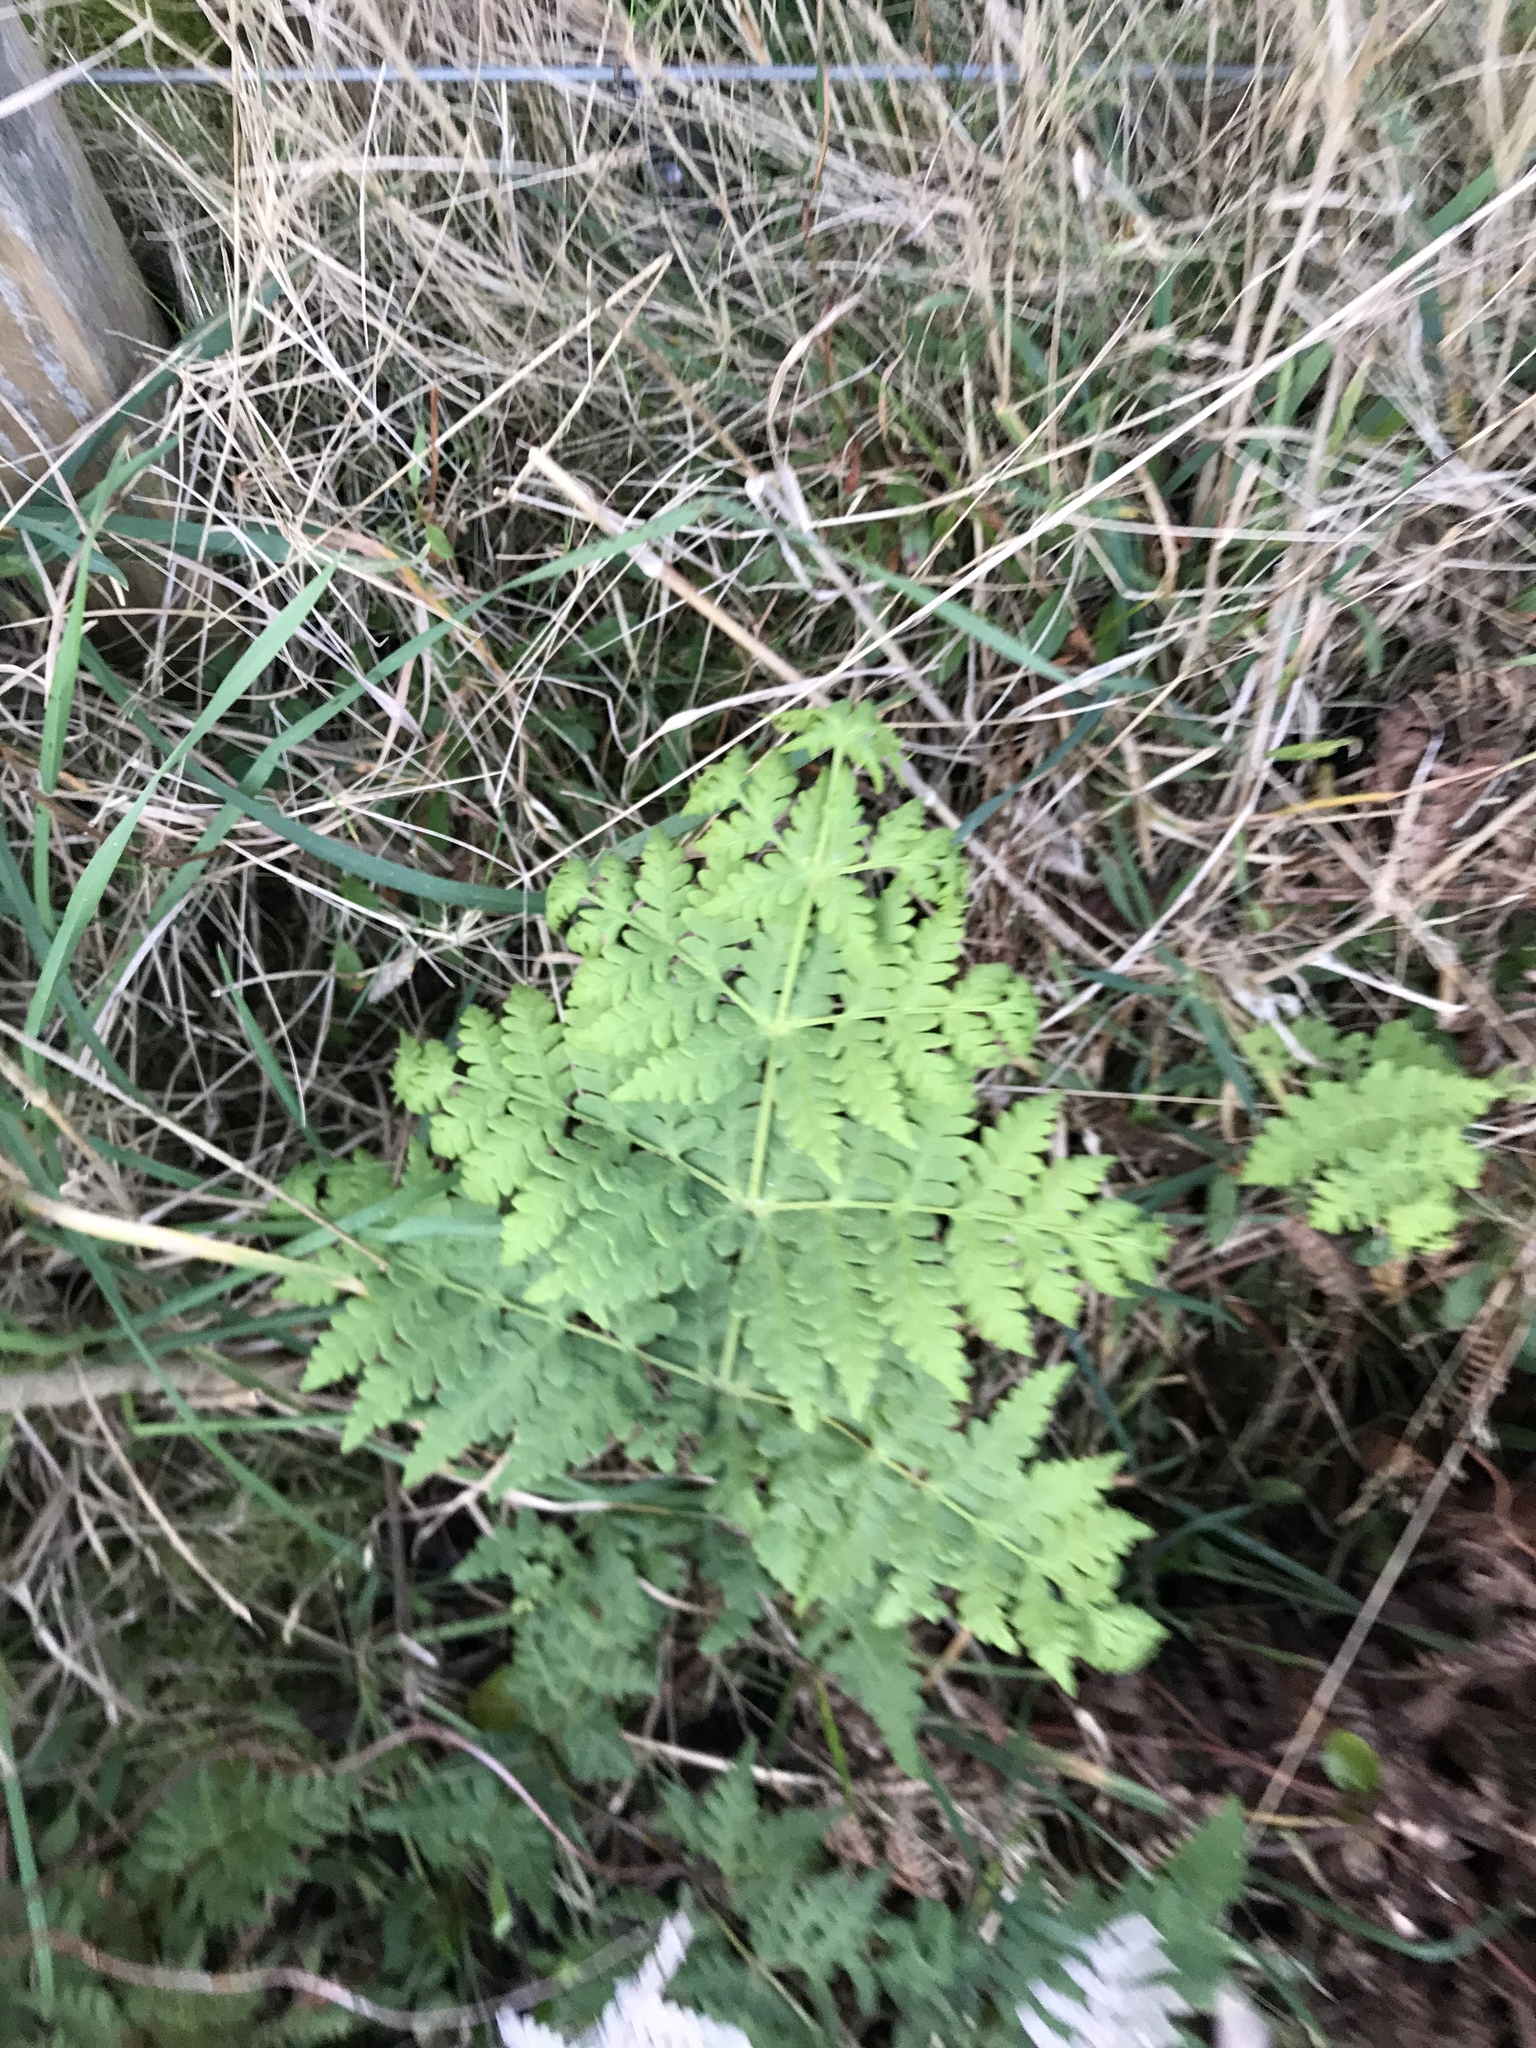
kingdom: Plantae
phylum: Tracheophyta
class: Polypodiopsida
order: Polypodiales
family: Dennstaedtiaceae
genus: Histiopteris
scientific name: Histiopteris incisa
